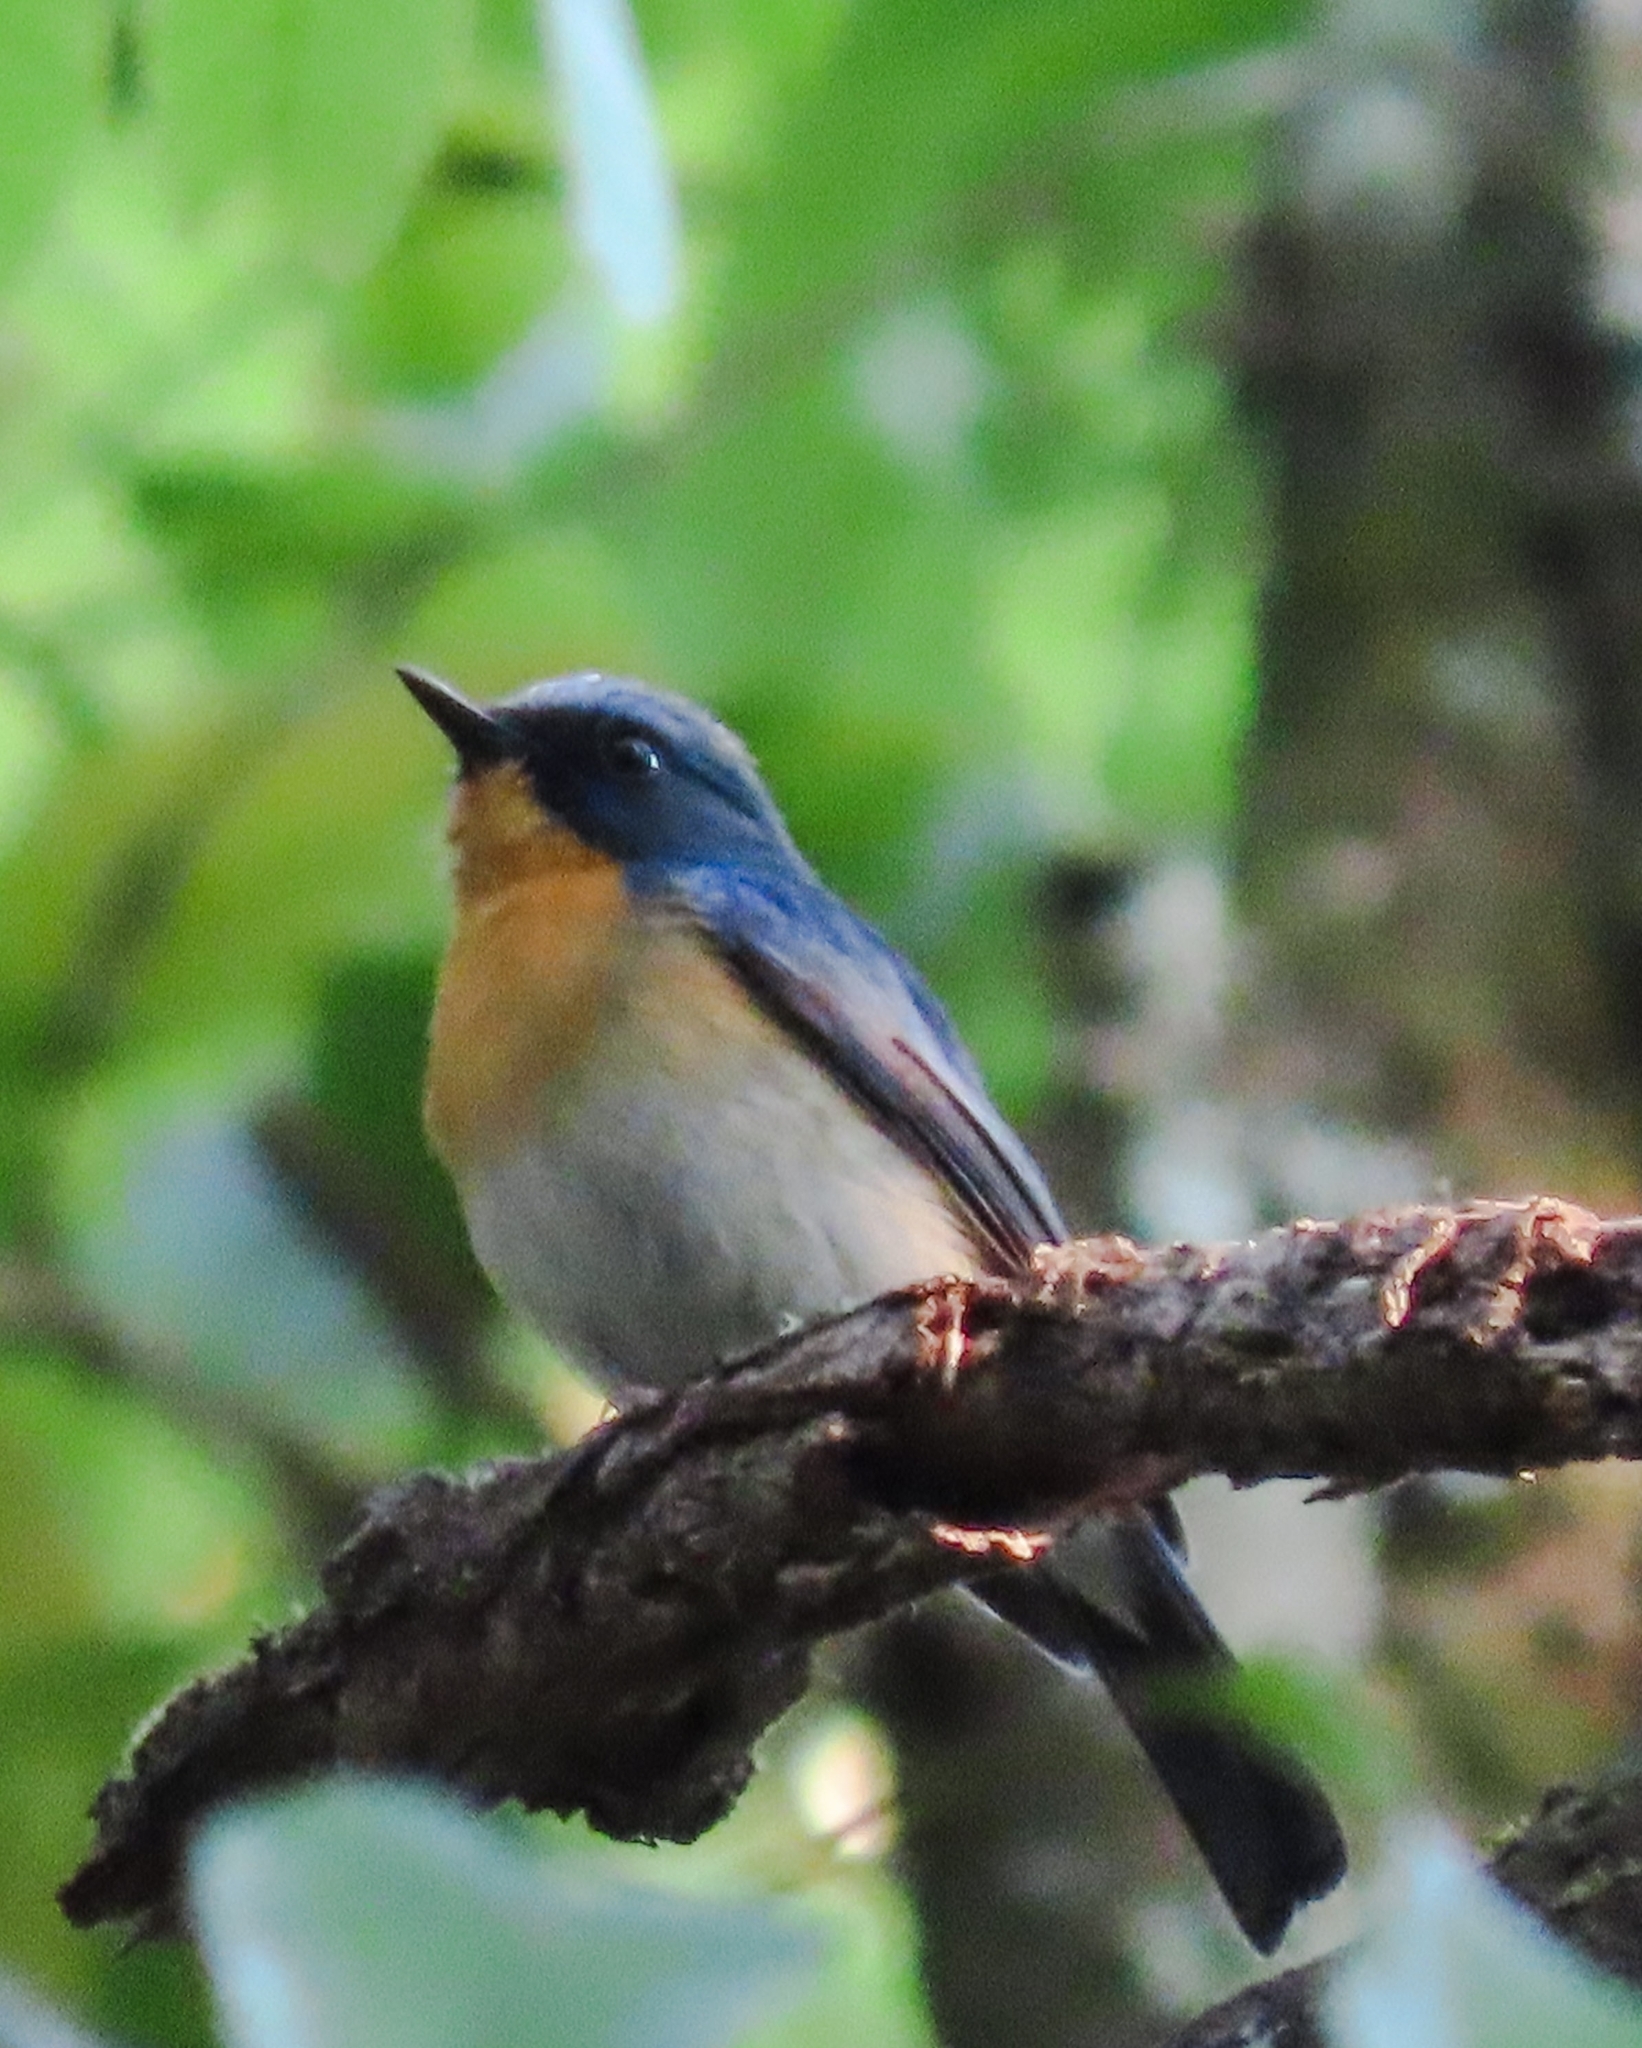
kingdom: Animalia
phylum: Chordata
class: Aves
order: Passeriformes
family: Muscicapidae
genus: Cyornis
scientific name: Cyornis whitei
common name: Hill blue flycatcher
